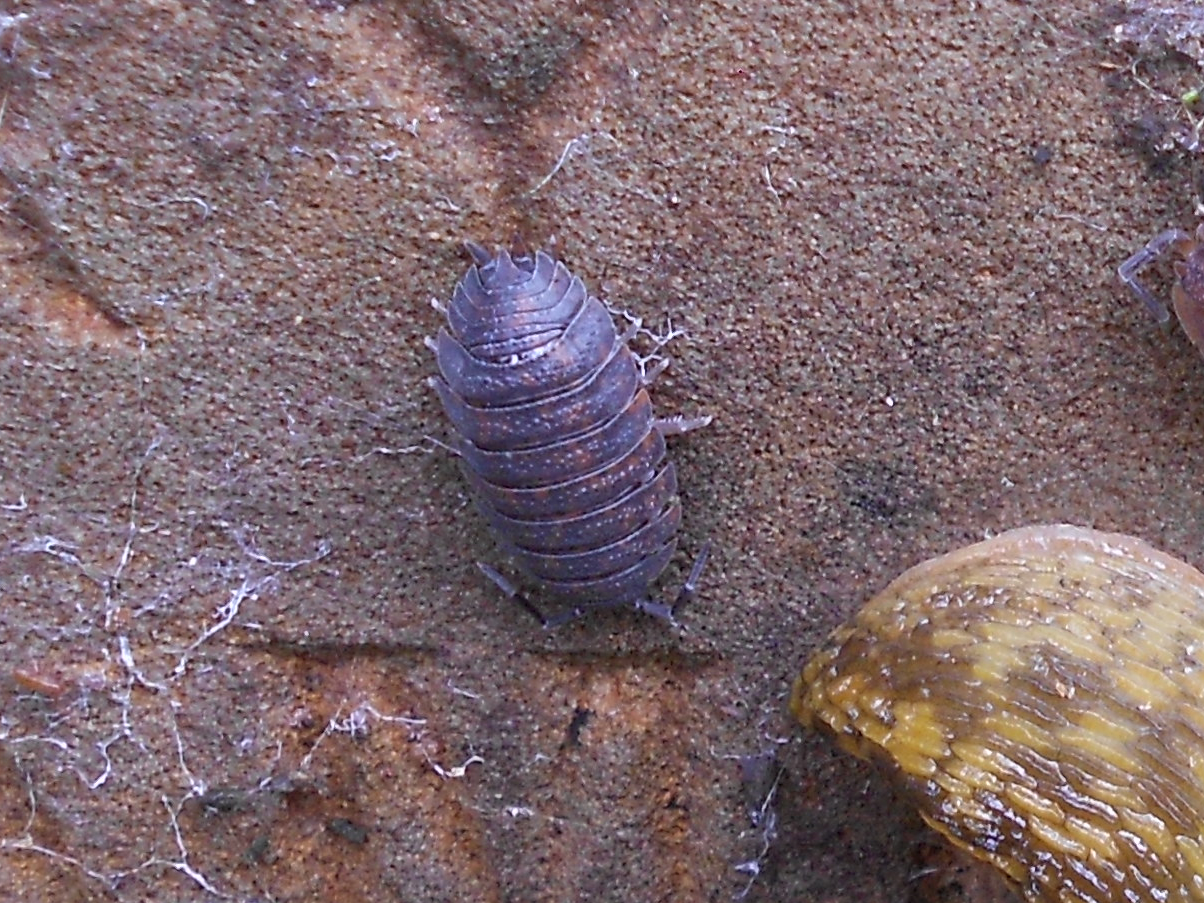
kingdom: Animalia
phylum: Arthropoda
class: Malacostraca
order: Isopoda
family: Porcellionidae
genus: Porcellio
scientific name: Porcellio scaber
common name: Common rough woodlouse
